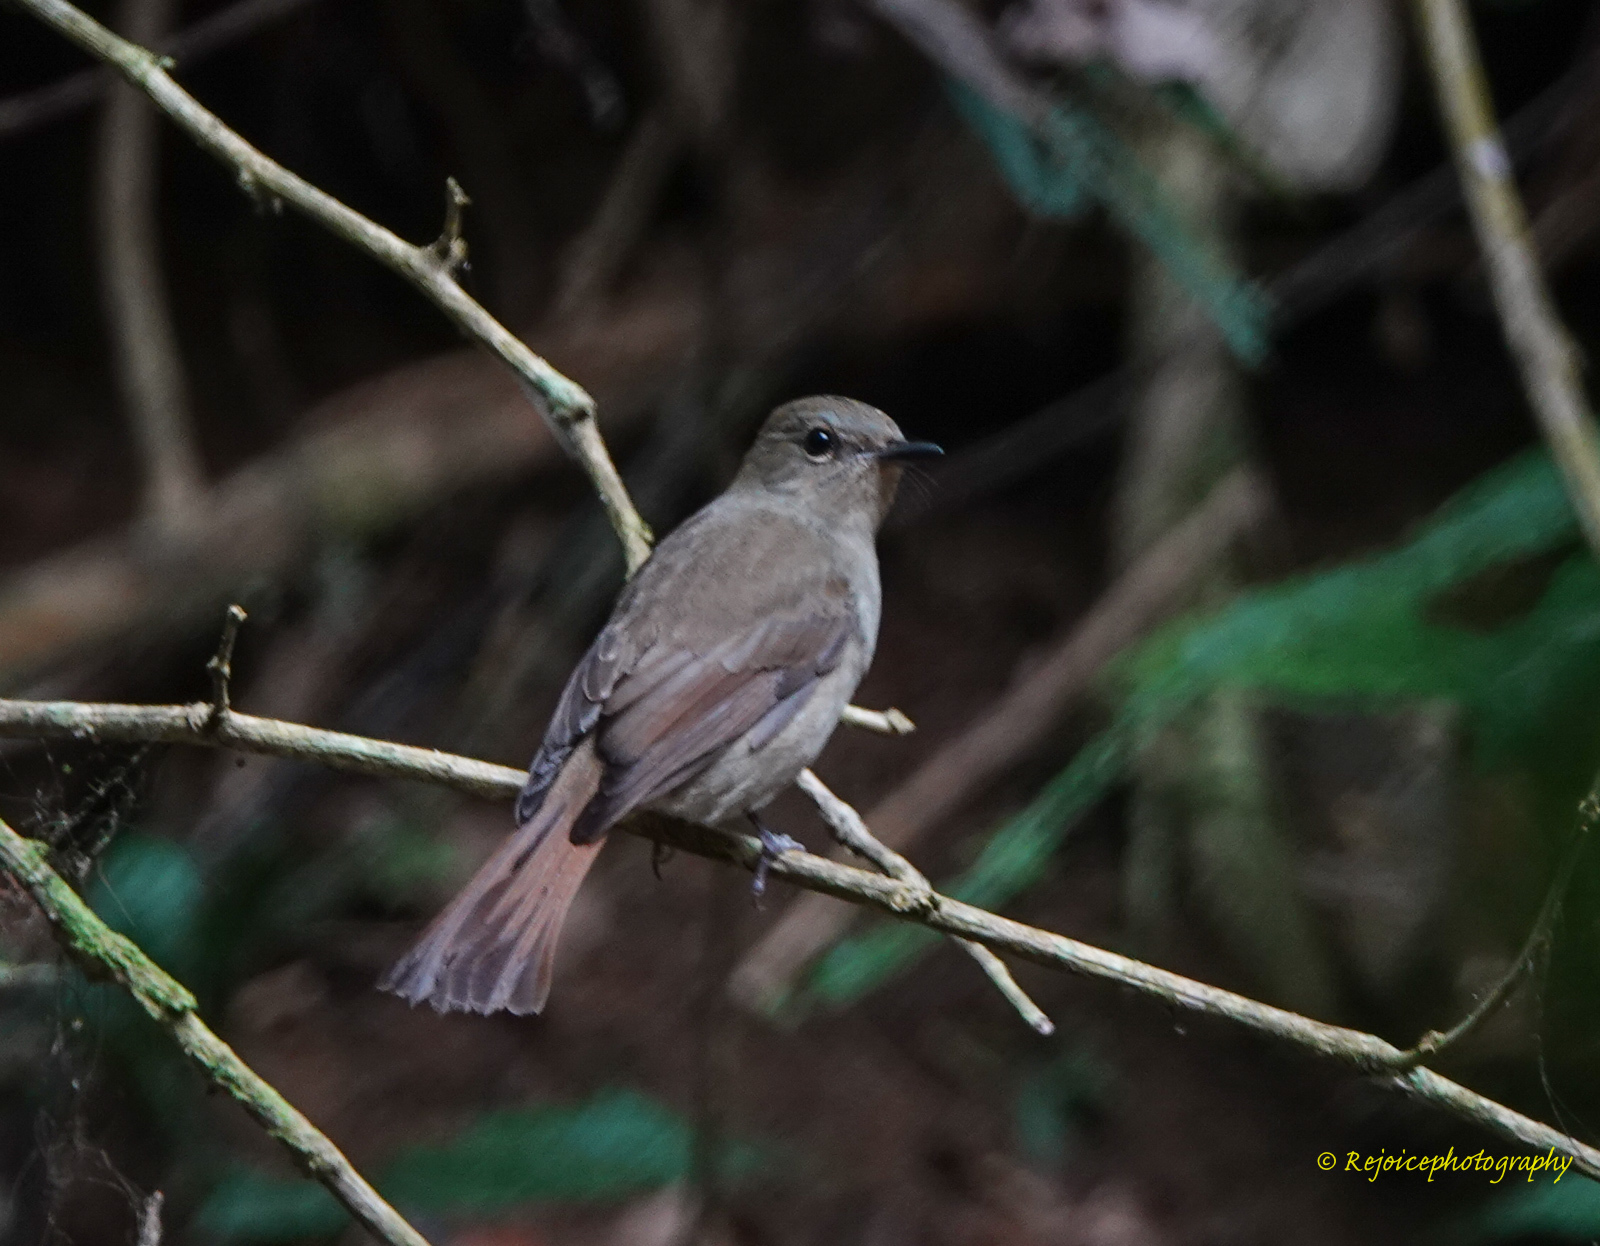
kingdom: Animalia
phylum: Chordata
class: Aves
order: Passeriformes
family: Muscicapidae
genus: Cyornis
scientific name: Cyornis unicolor
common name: Pale blue flycatcher
